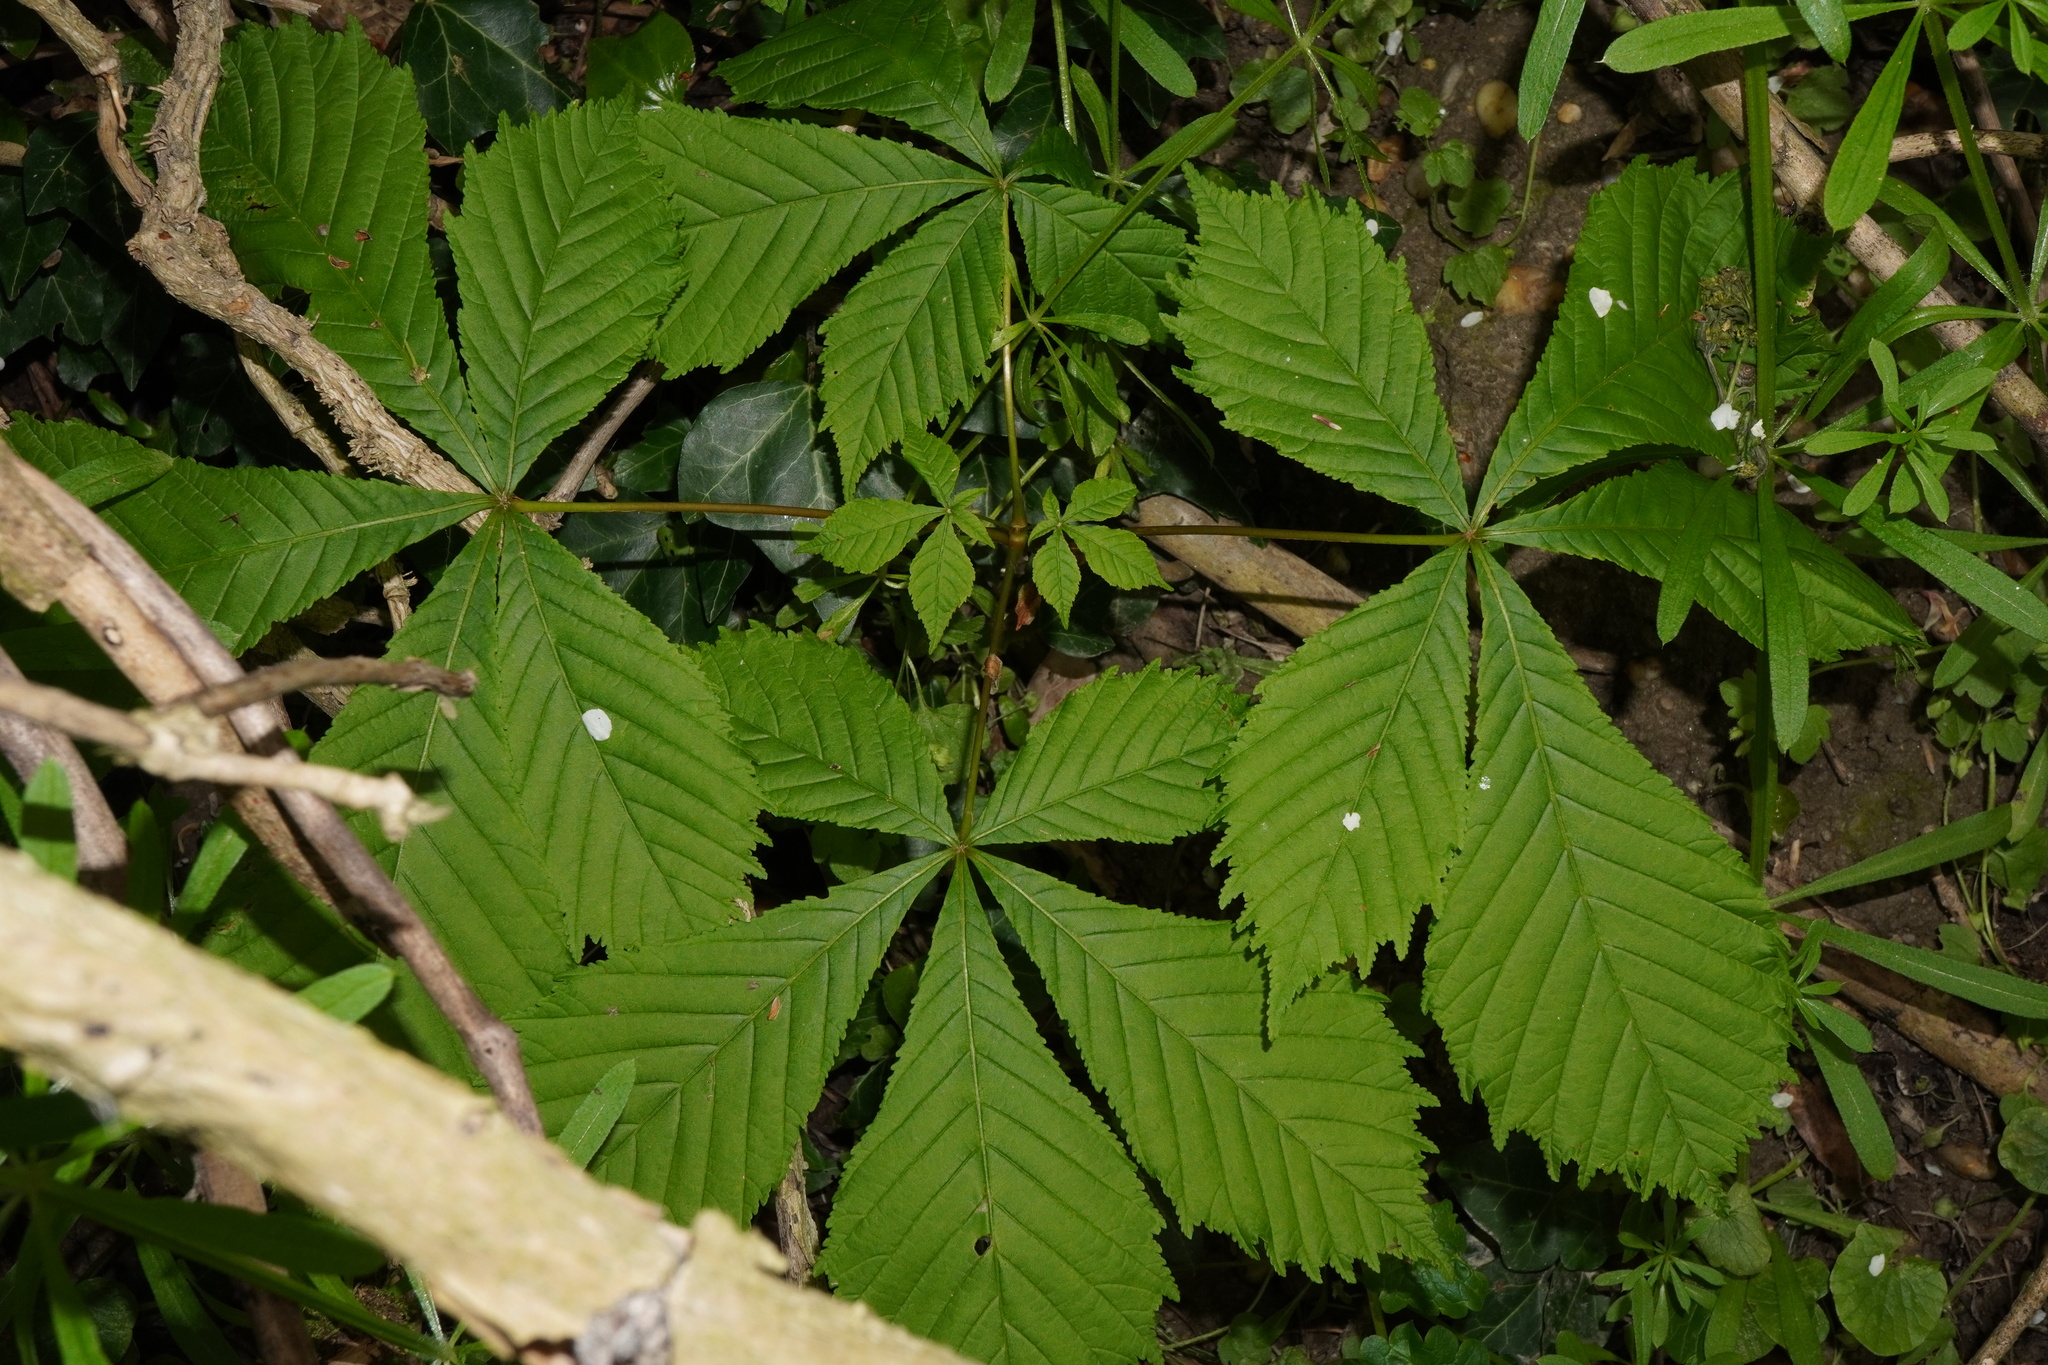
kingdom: Plantae
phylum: Tracheophyta
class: Magnoliopsida
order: Sapindales
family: Sapindaceae
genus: Aesculus
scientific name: Aesculus hippocastanum
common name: Horse-chestnut
